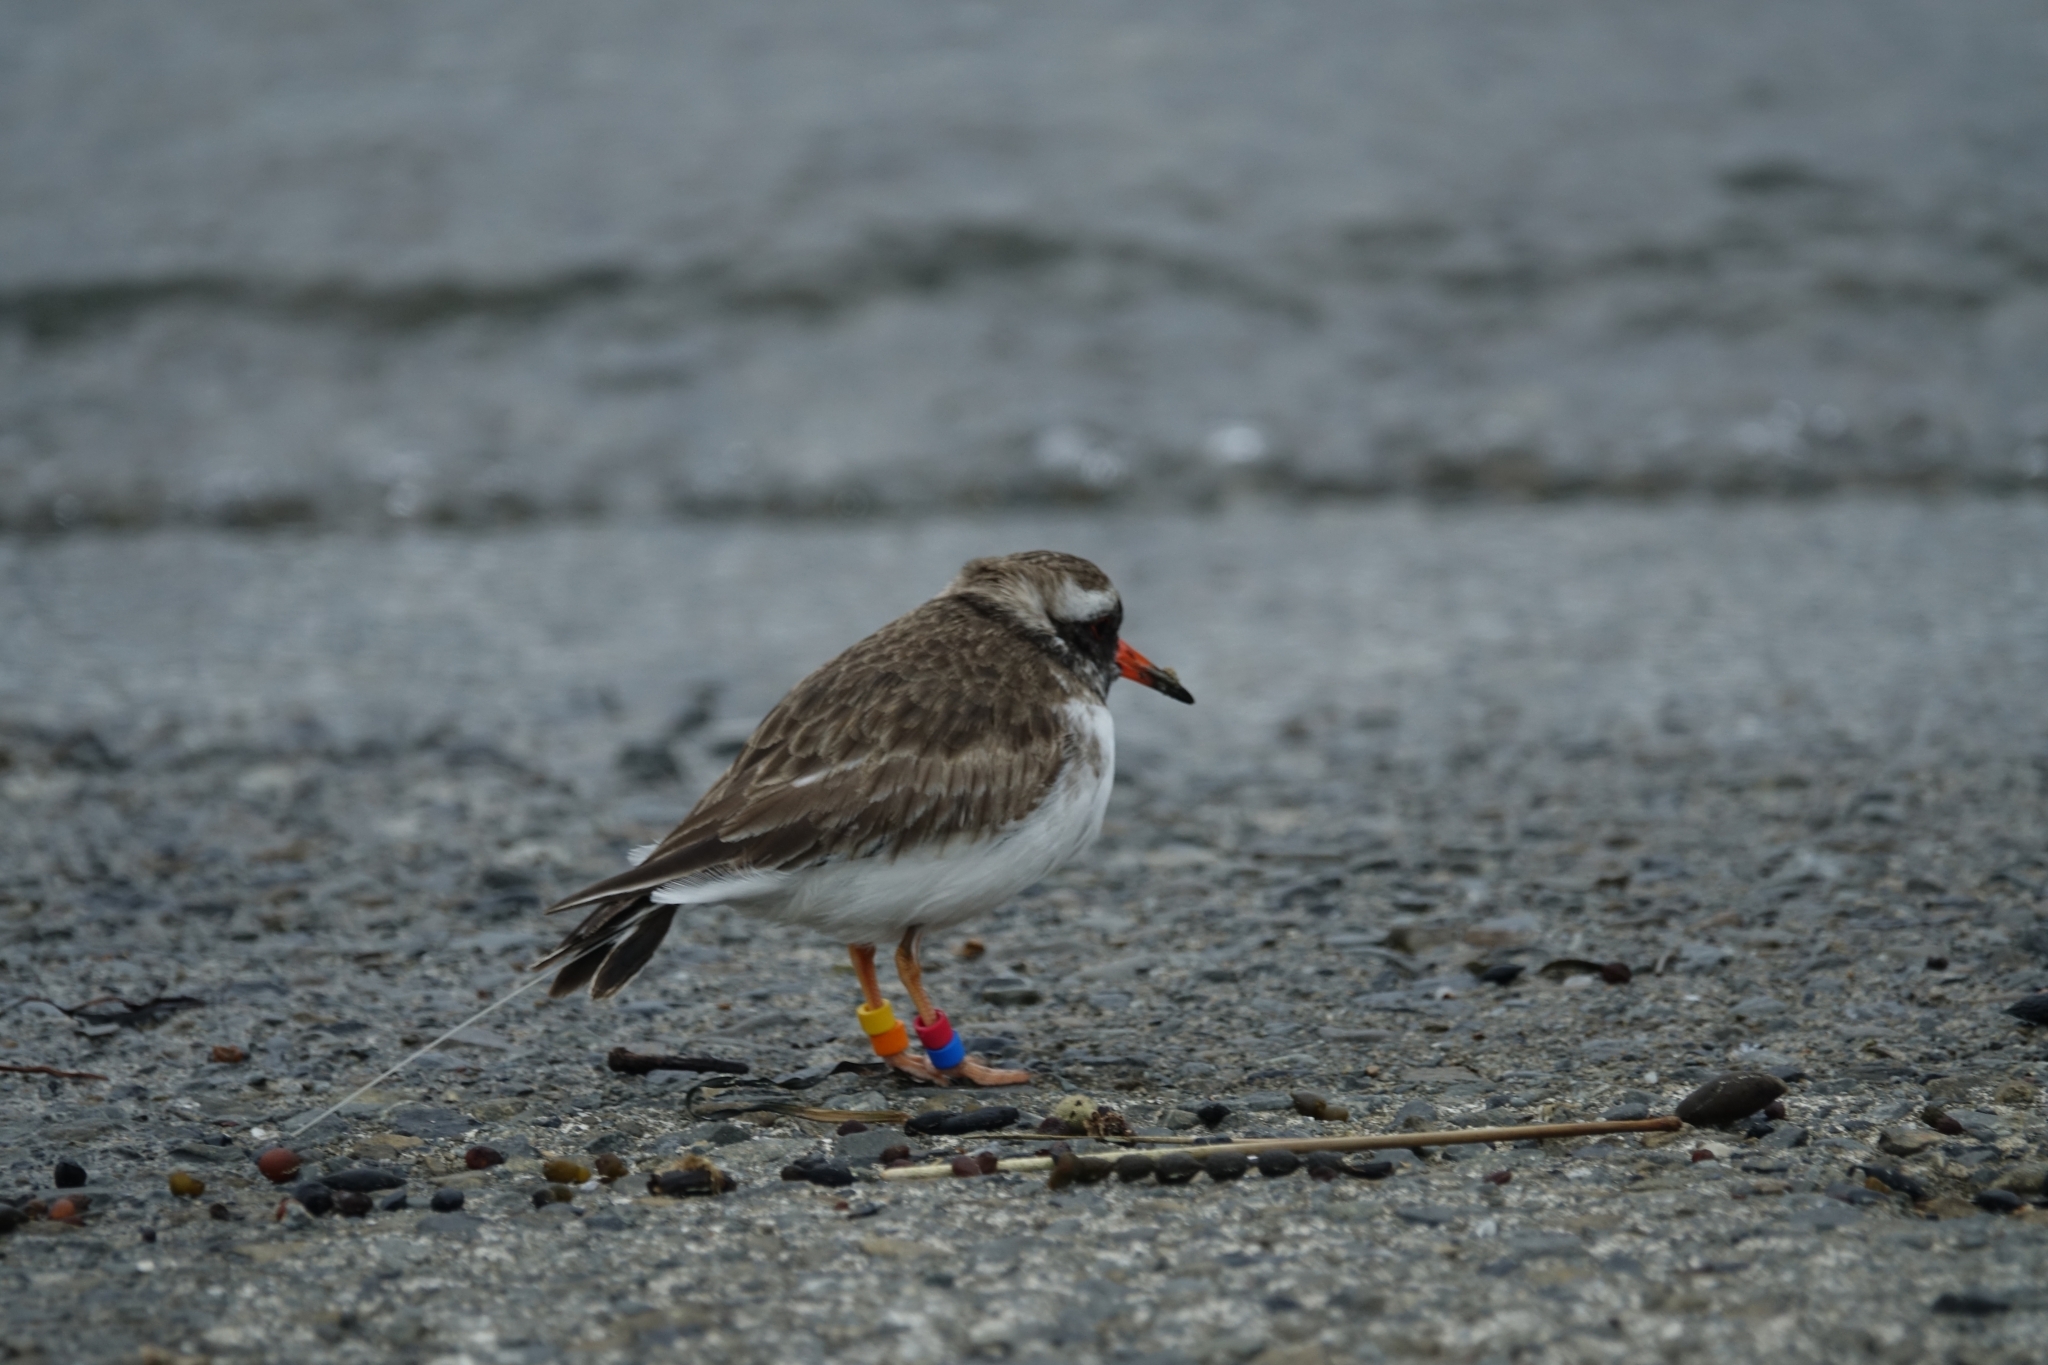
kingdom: Animalia
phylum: Chordata
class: Aves
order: Charadriiformes
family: Charadriidae
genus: Thinornis
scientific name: Thinornis novaeseelandiae
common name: Shore dotterel
